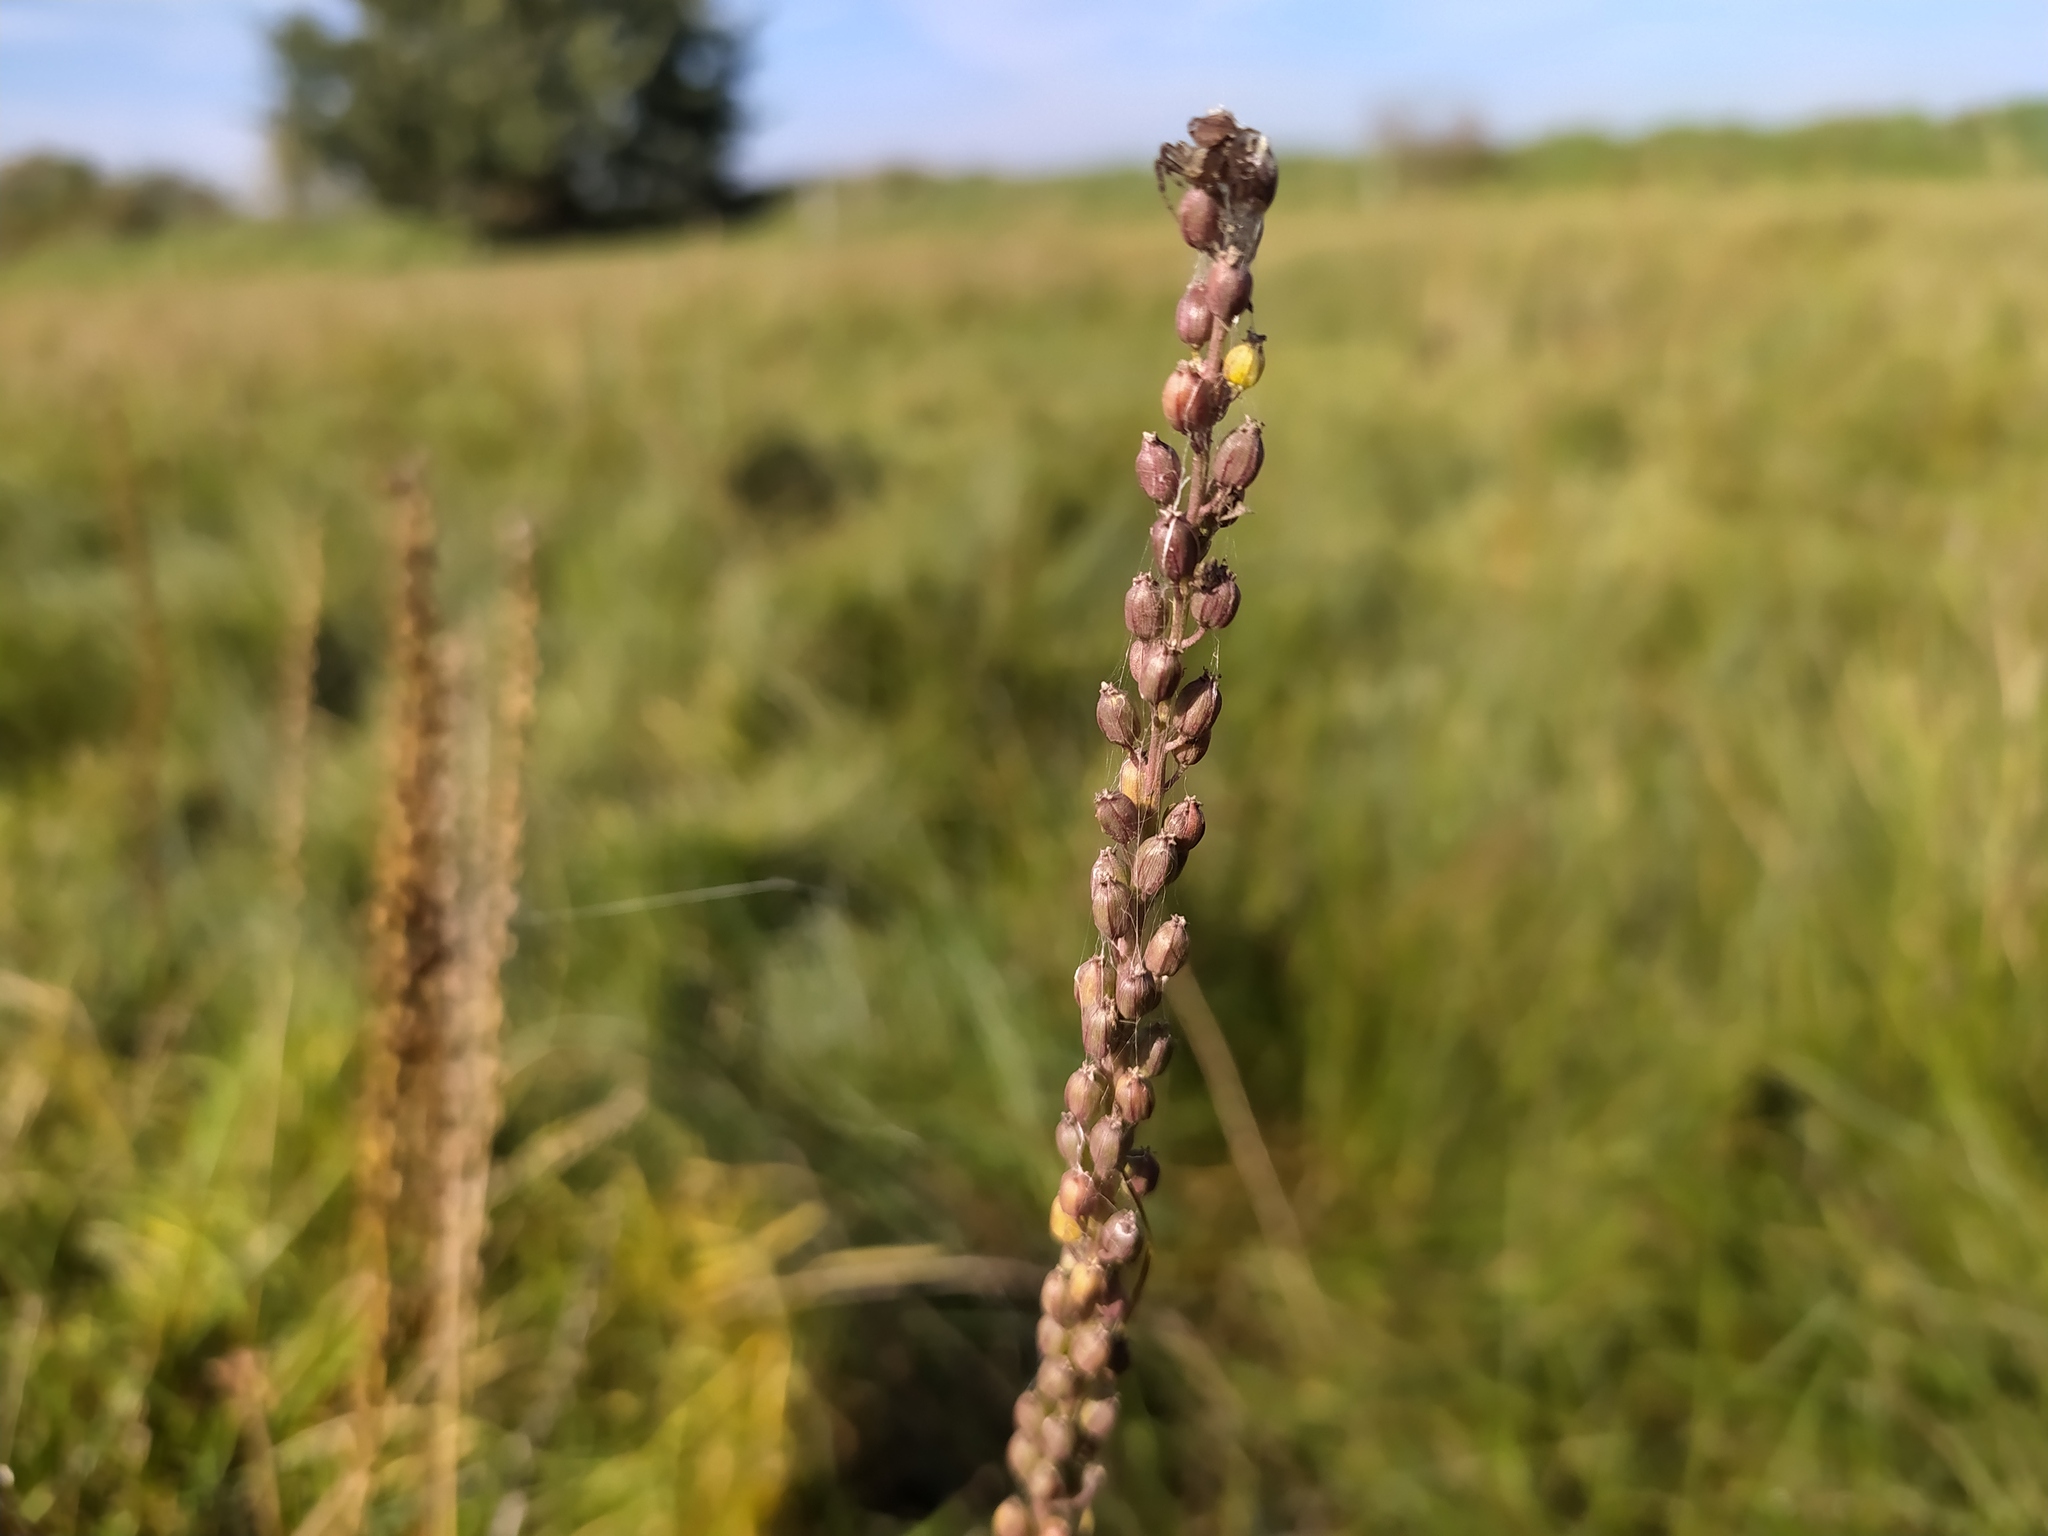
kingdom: Plantae
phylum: Tracheophyta
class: Liliopsida
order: Alismatales
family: Juncaginaceae
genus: Triglochin
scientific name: Triglochin maritima
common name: Sea arrowgrass
